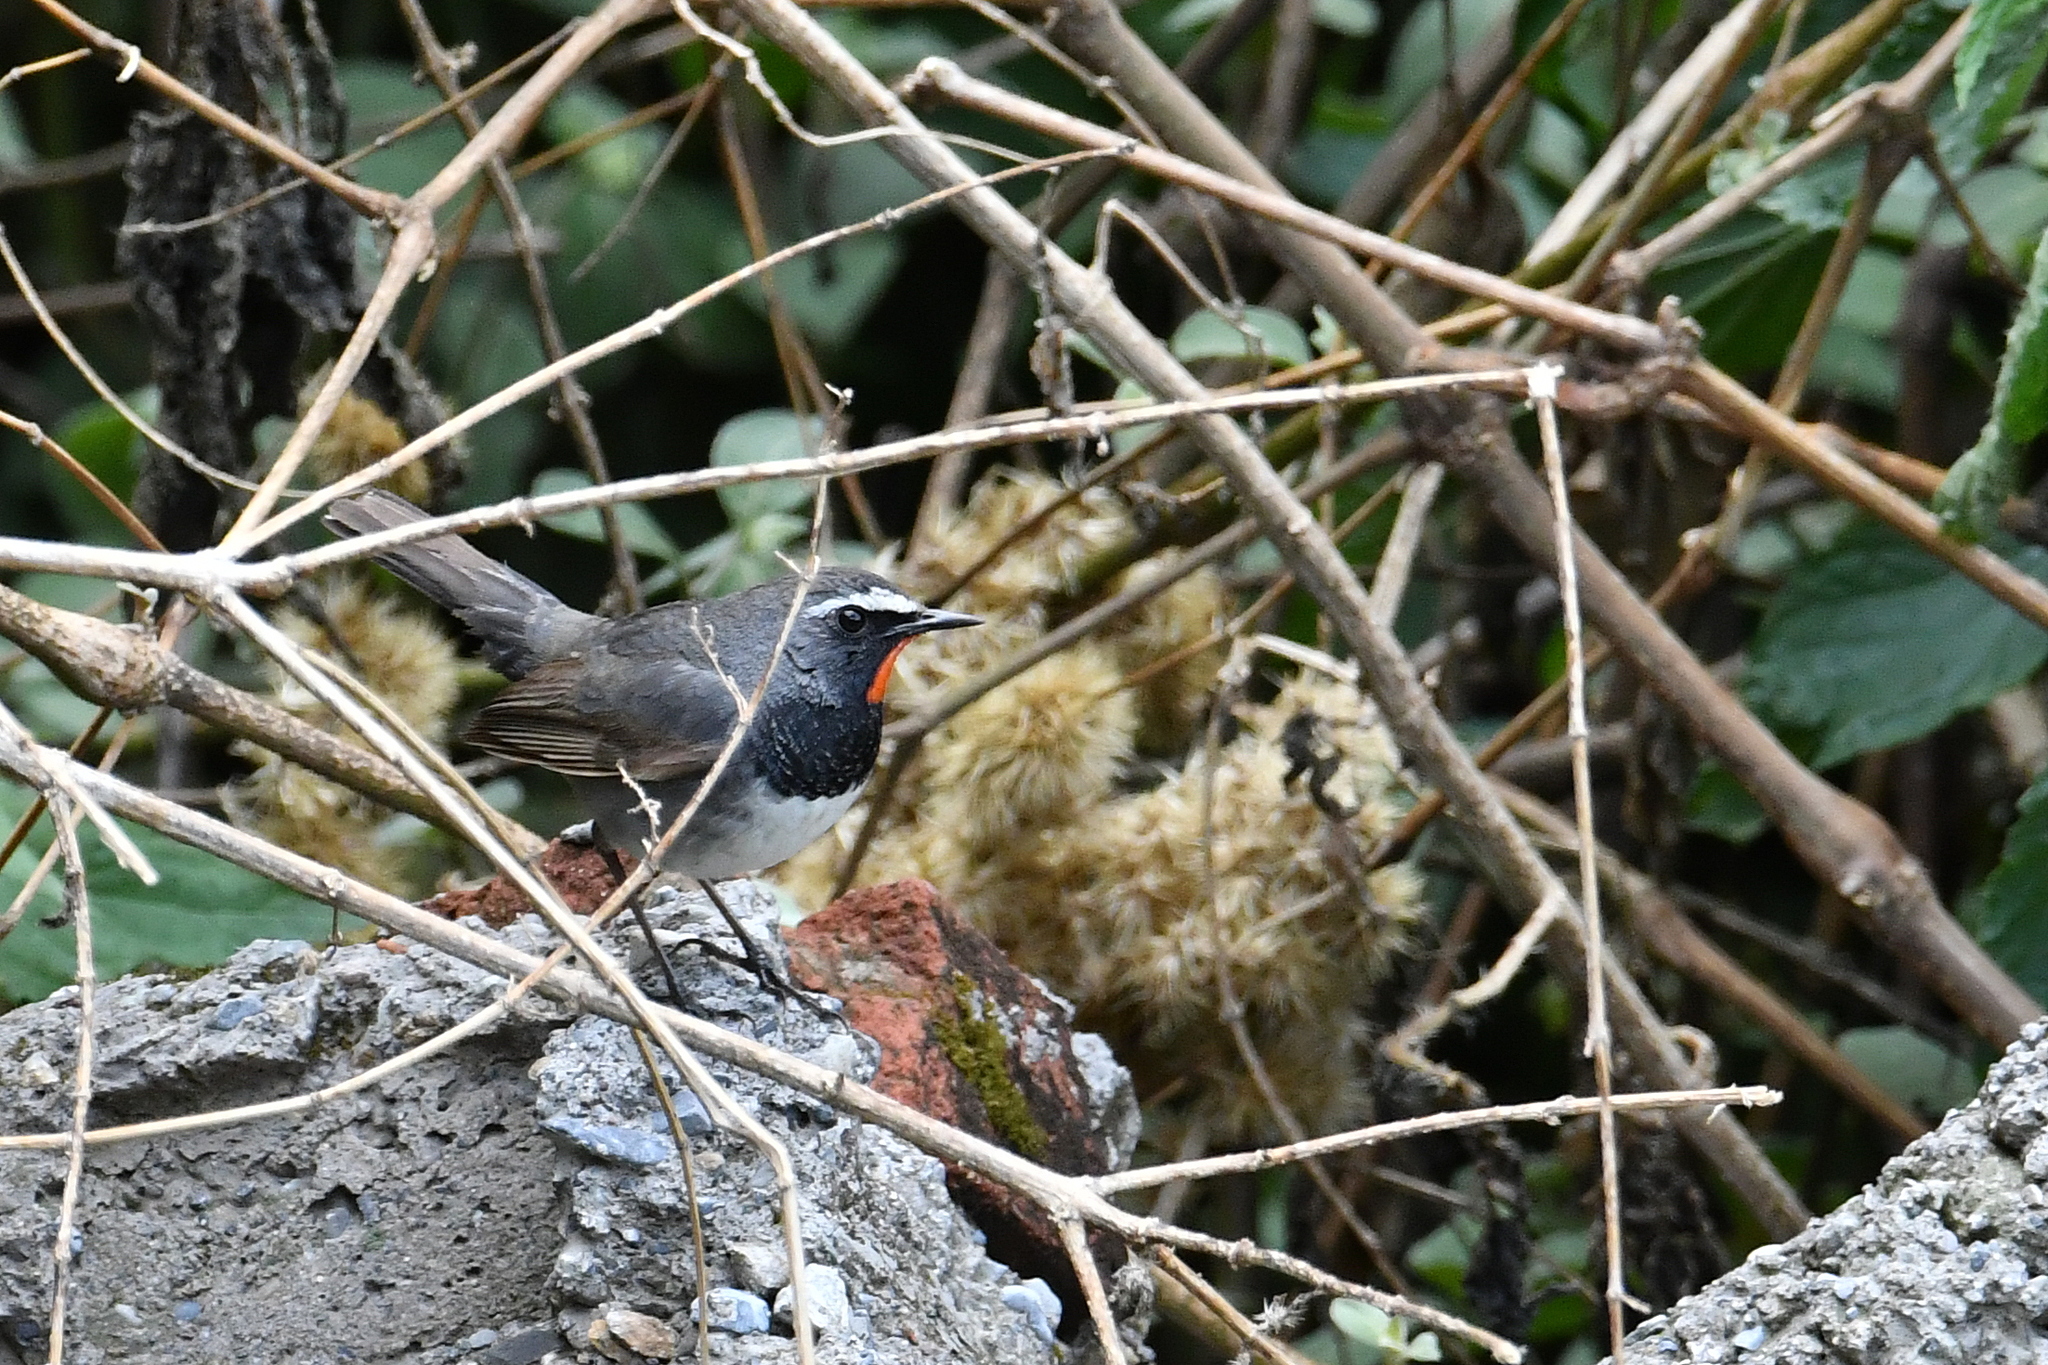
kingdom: Animalia
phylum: Chordata
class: Aves
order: Passeriformes
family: Muscicapidae
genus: Luscinia
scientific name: Luscinia pectoralis
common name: White-tailed rubythroat
